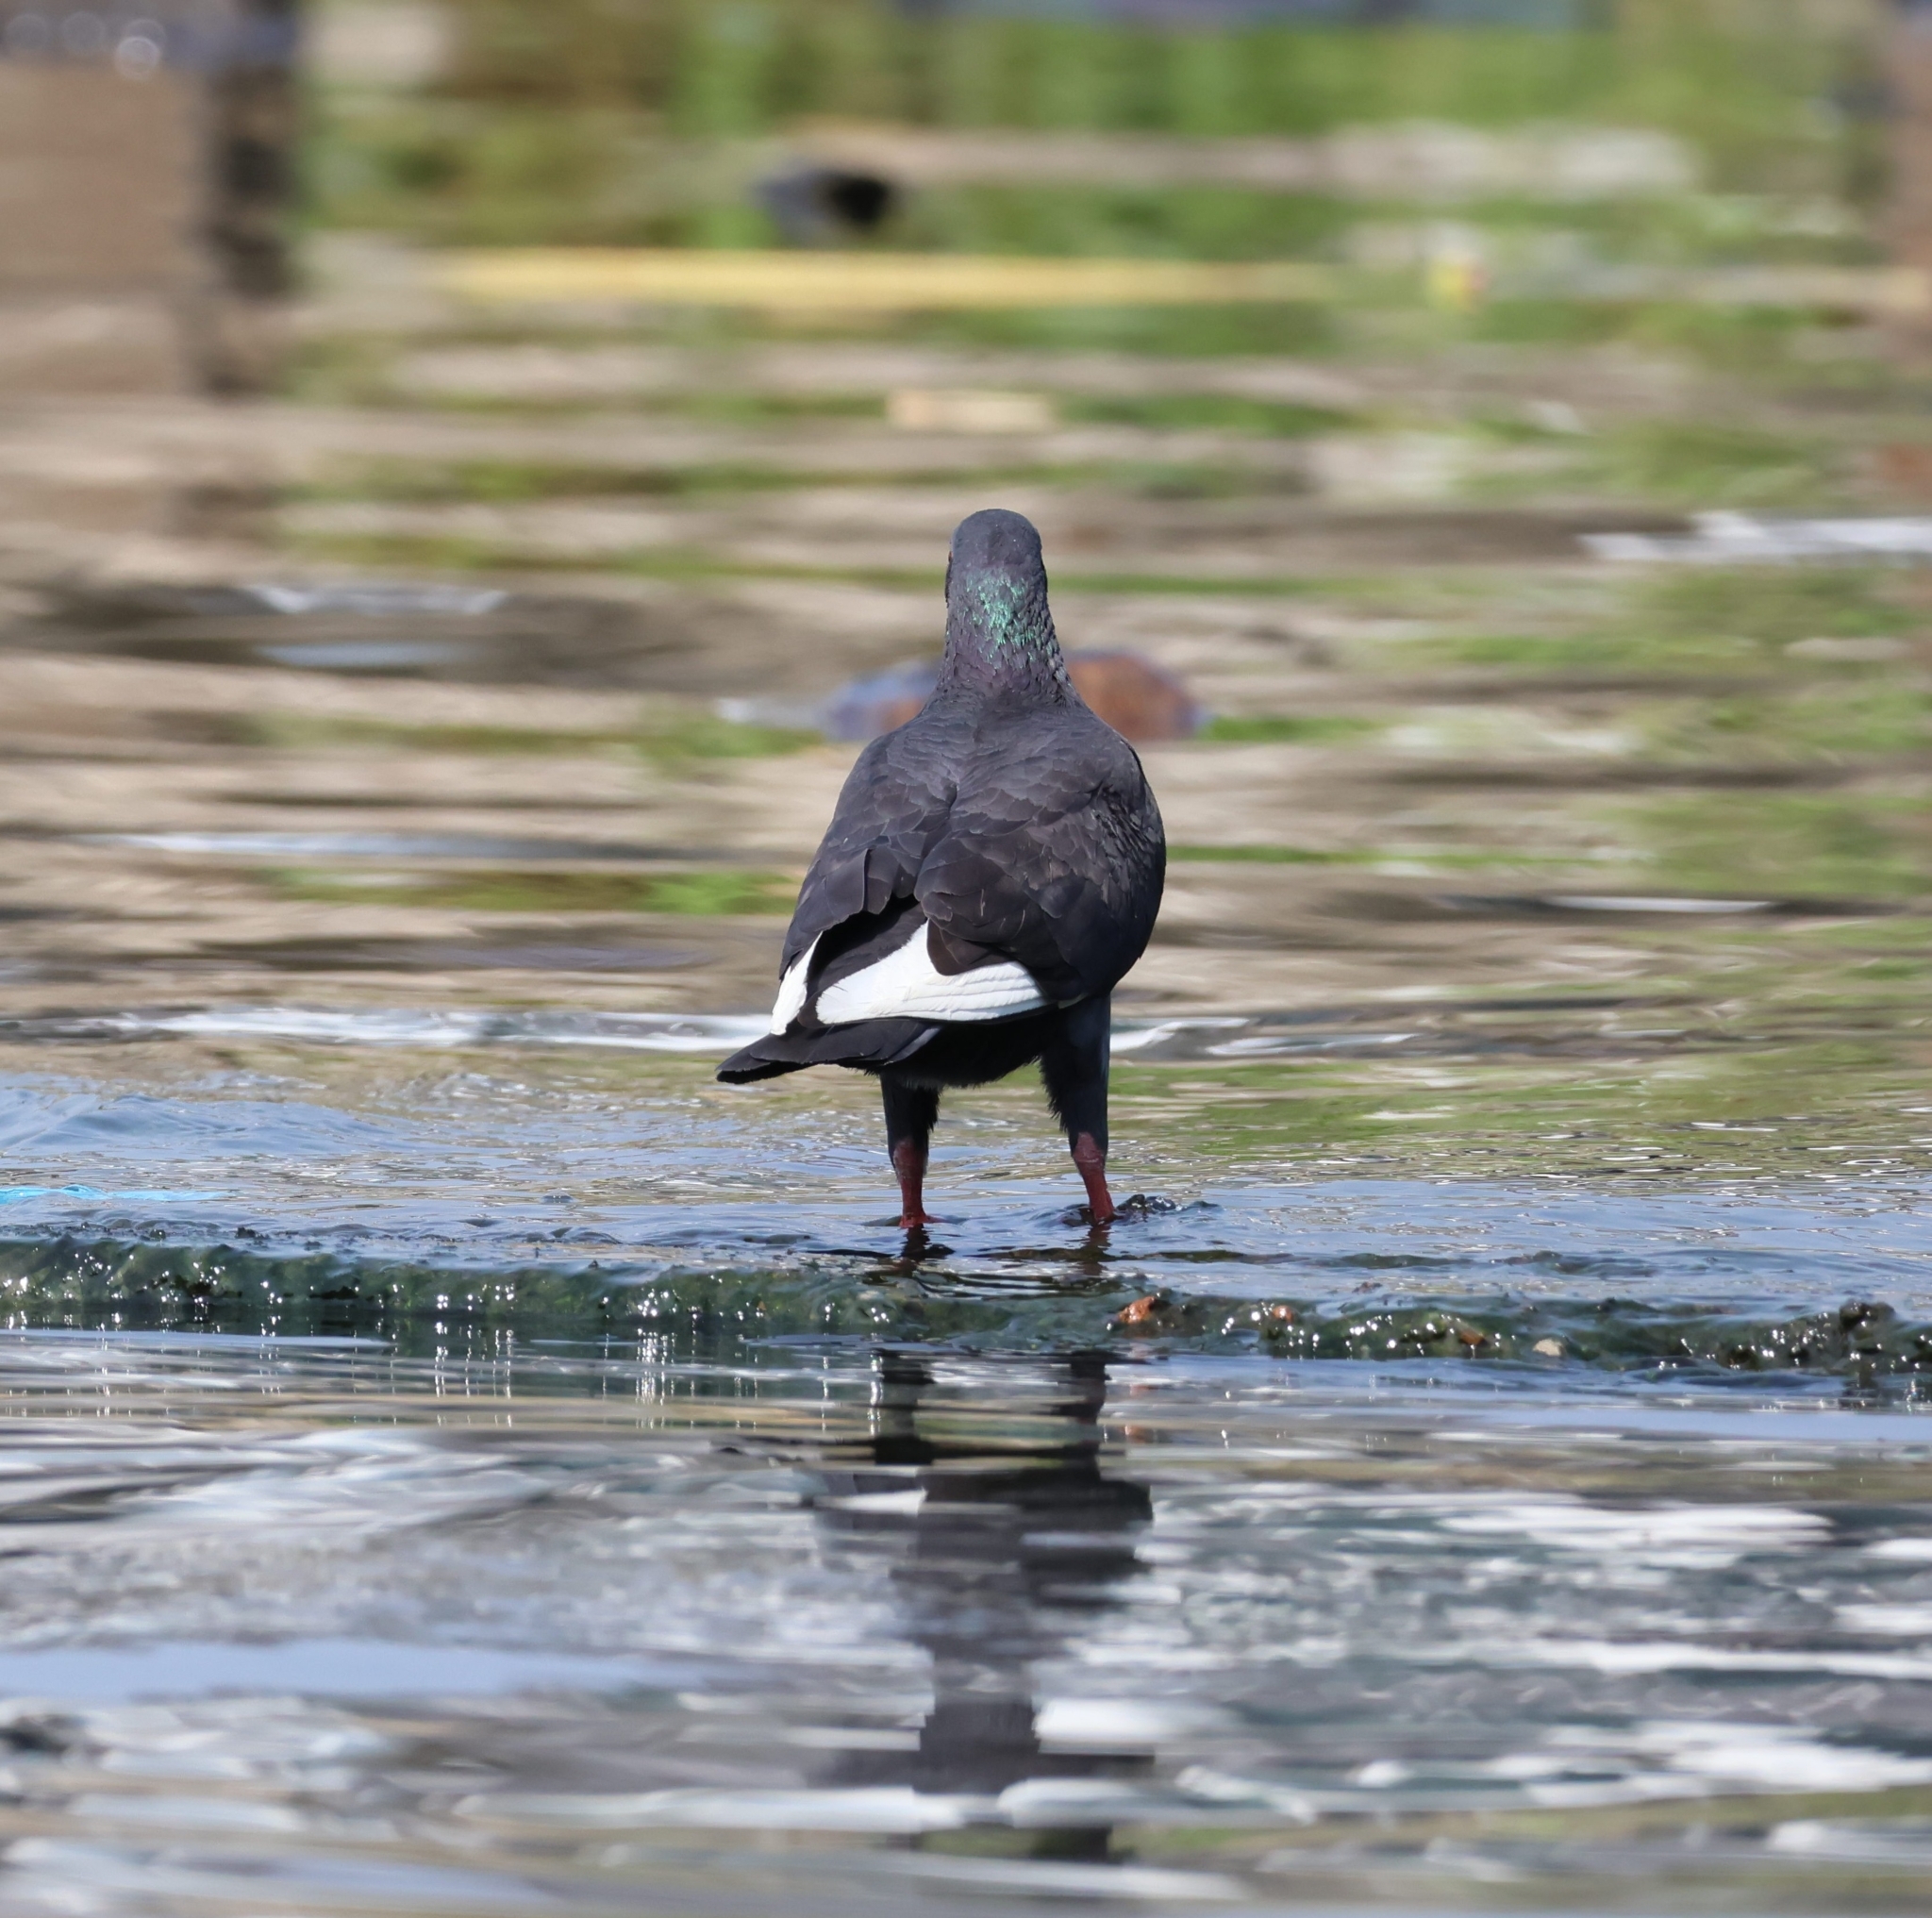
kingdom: Animalia
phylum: Chordata
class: Aves
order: Columbiformes
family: Columbidae
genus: Columba
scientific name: Columba livia
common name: Rock pigeon
